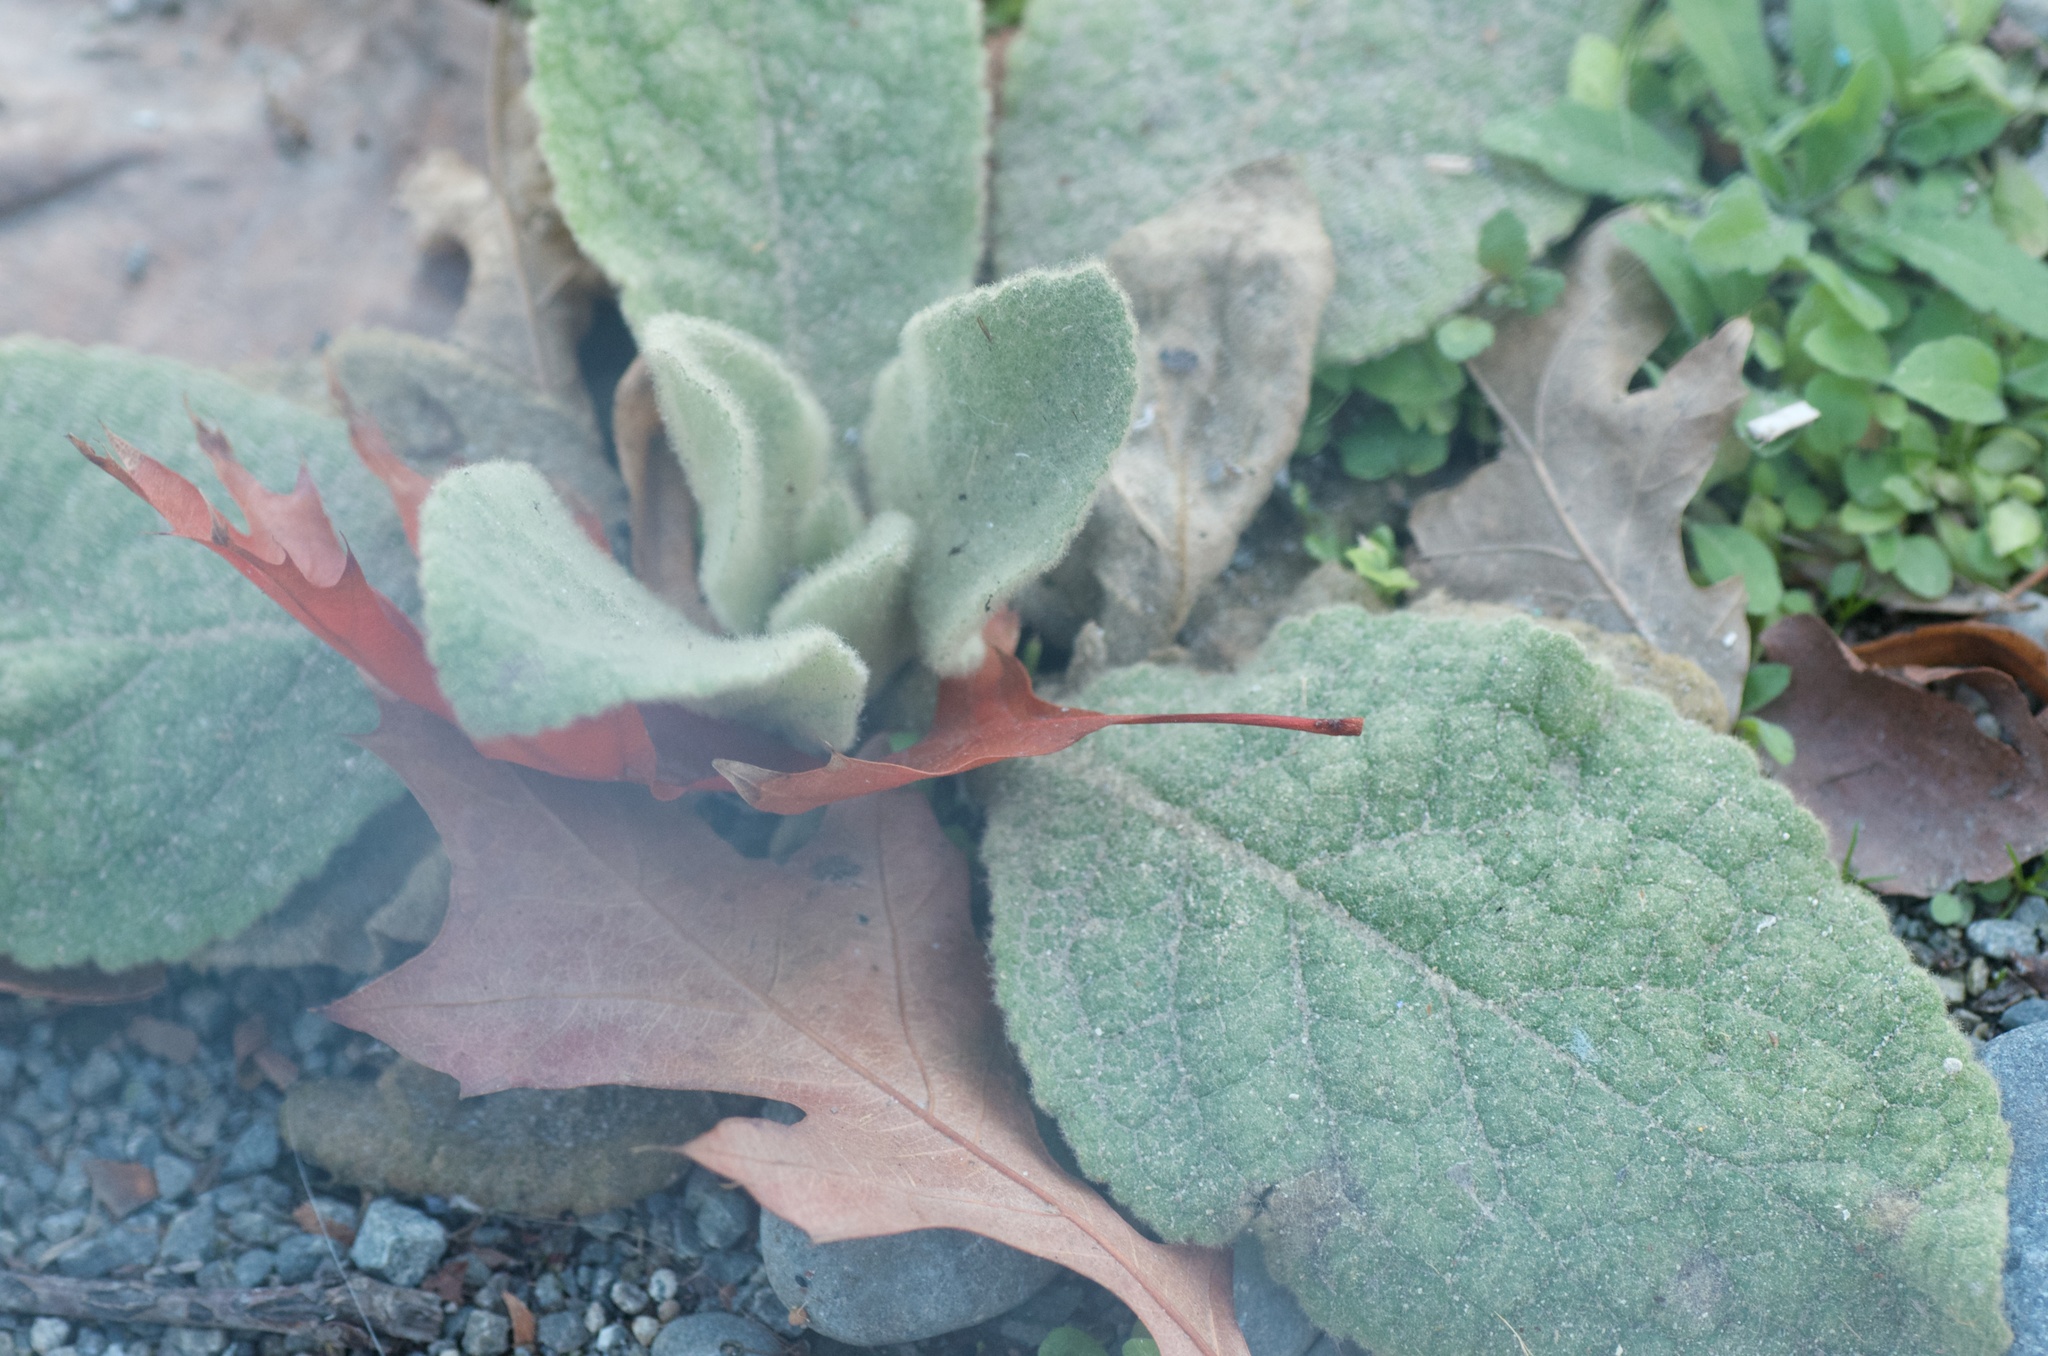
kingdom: Plantae
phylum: Tracheophyta
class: Magnoliopsida
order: Lamiales
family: Scrophulariaceae
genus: Verbascum
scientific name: Verbascum thapsus
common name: Common mullein
